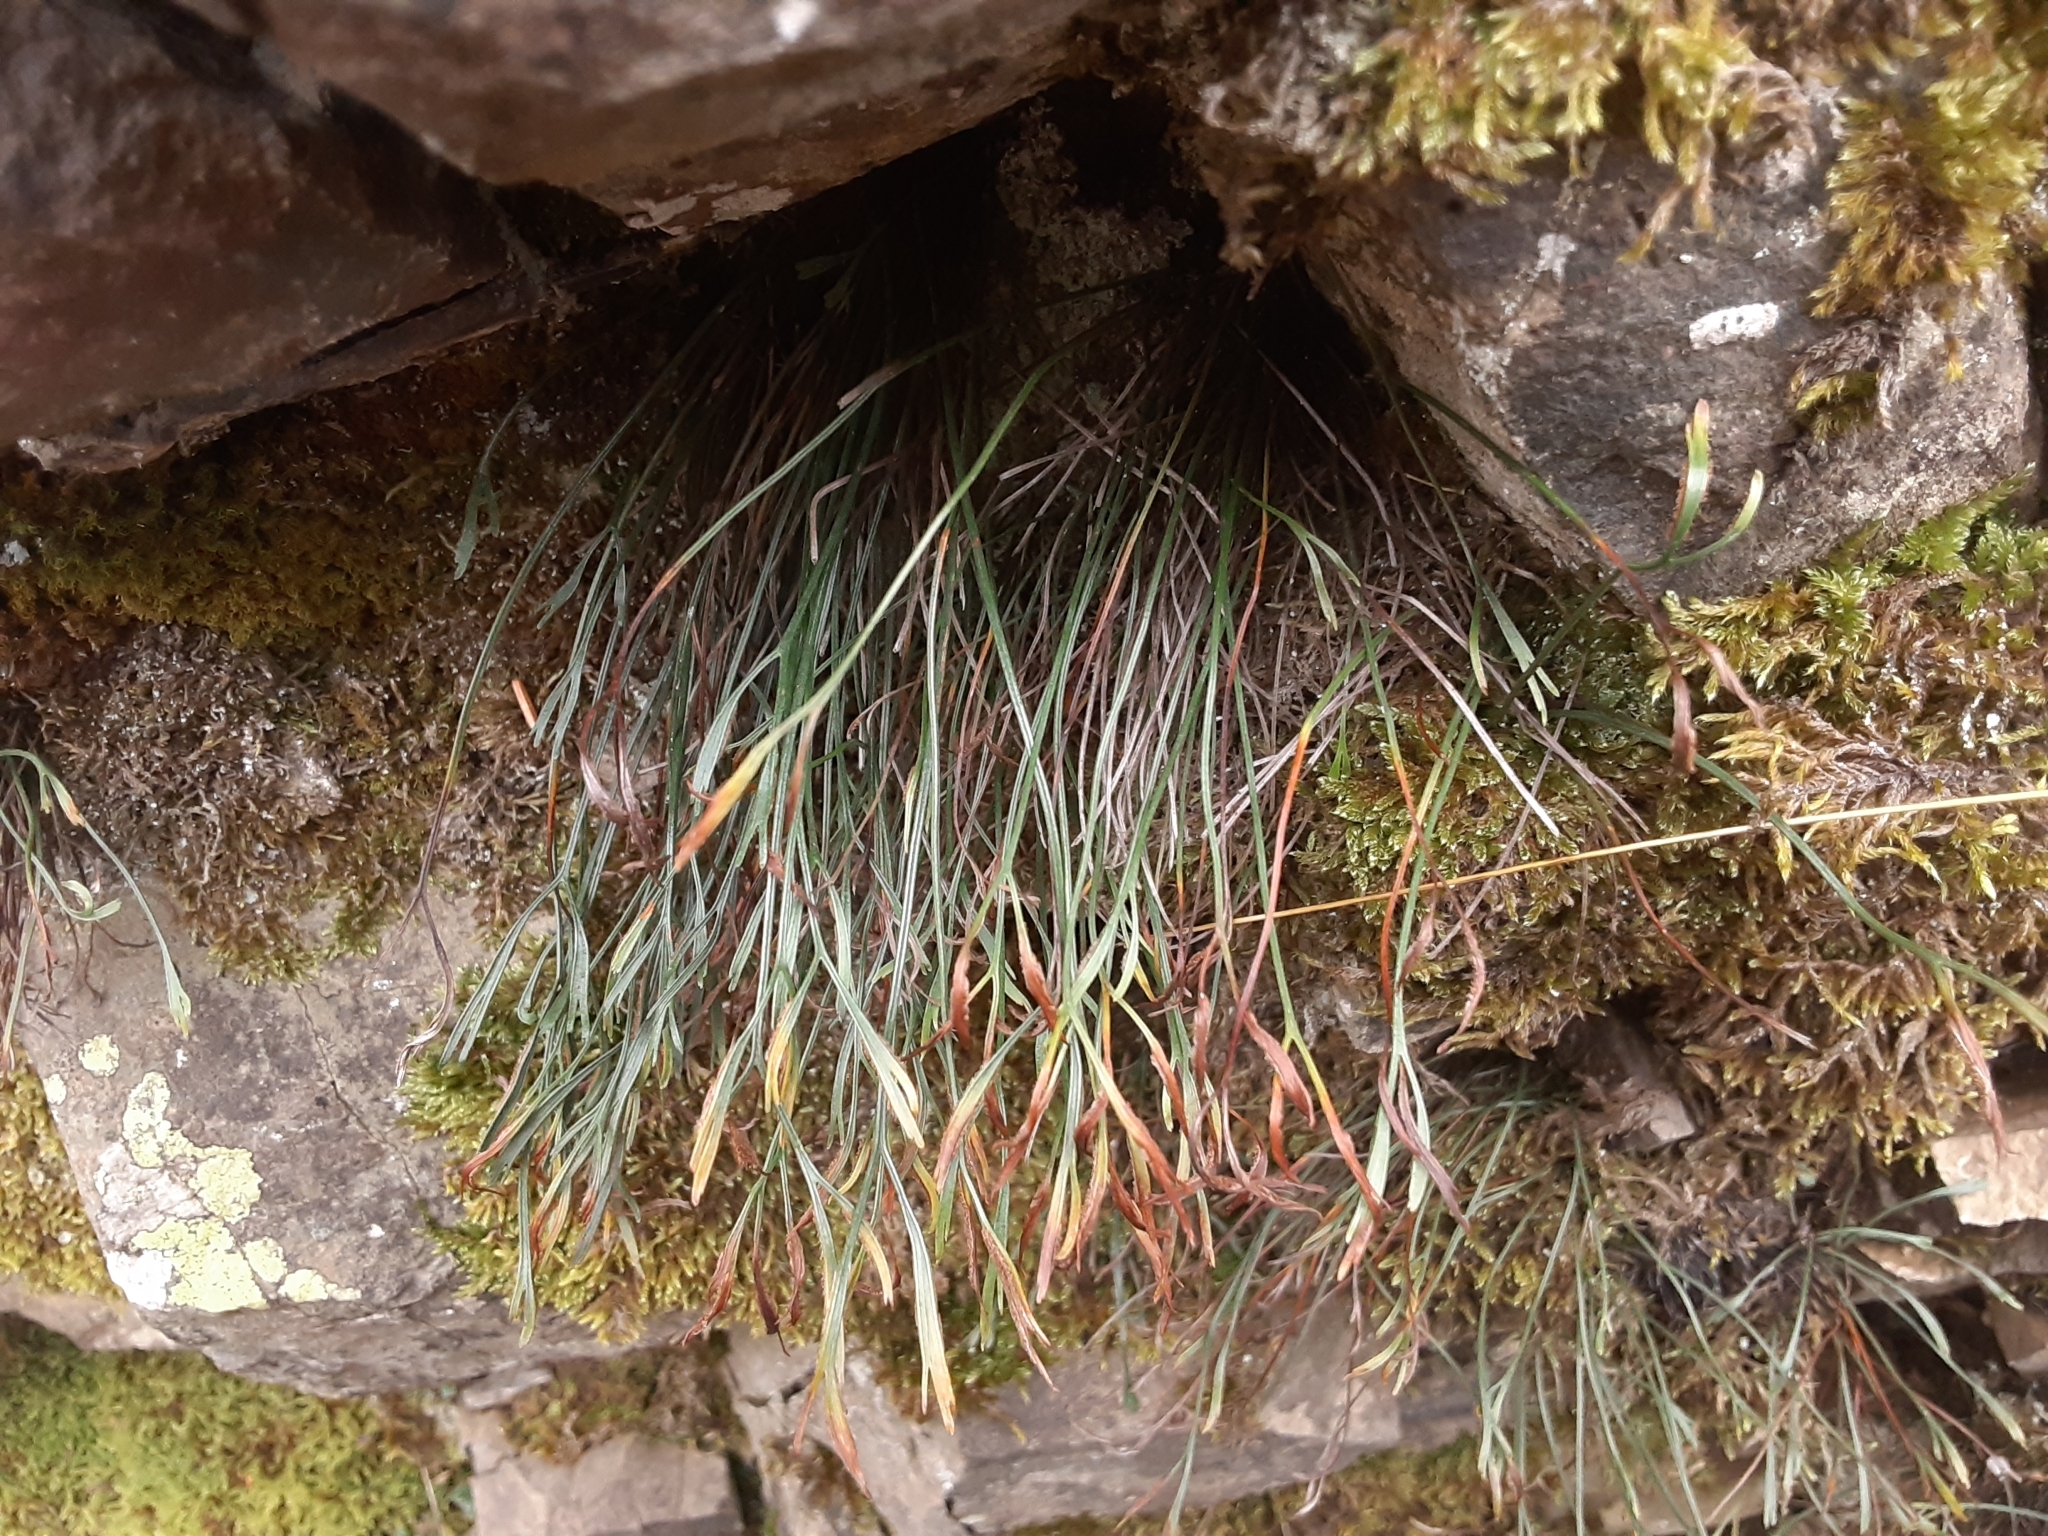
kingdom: Plantae
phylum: Tracheophyta
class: Polypodiopsida
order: Polypodiales
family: Aspleniaceae
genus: Asplenium
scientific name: Asplenium septentrionale
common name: Forked spleenwort
